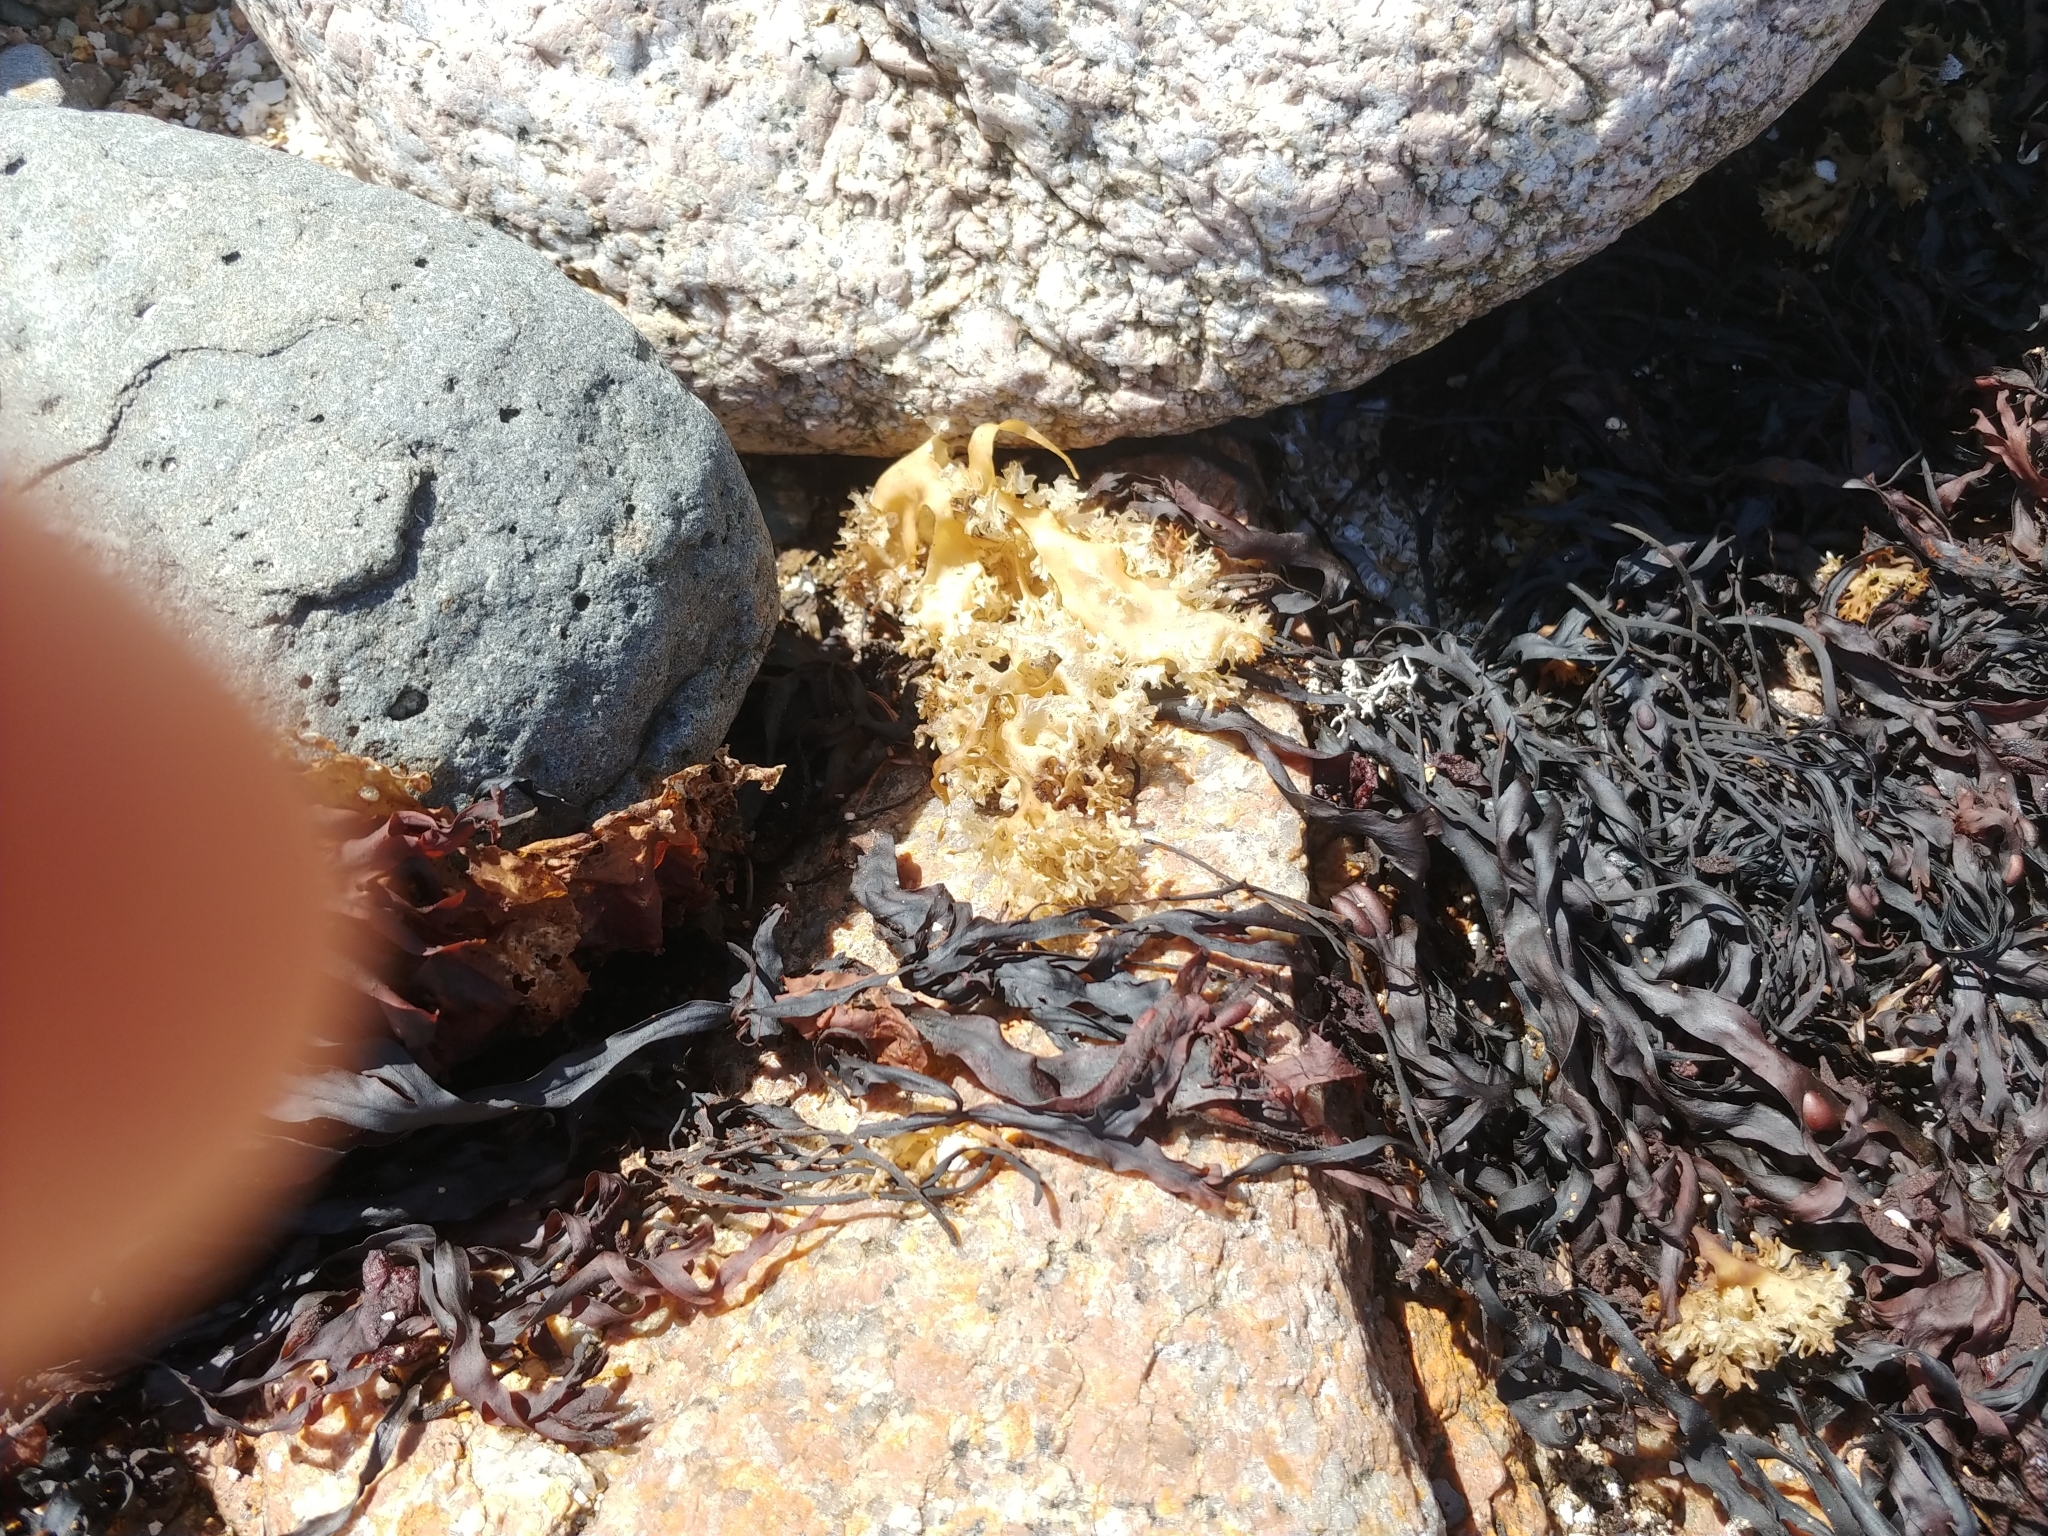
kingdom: Plantae
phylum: Rhodophyta
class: Florideophyceae
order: Gigartinales
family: Gigartinaceae
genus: Chondrus
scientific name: Chondrus crispus
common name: Carrageen
